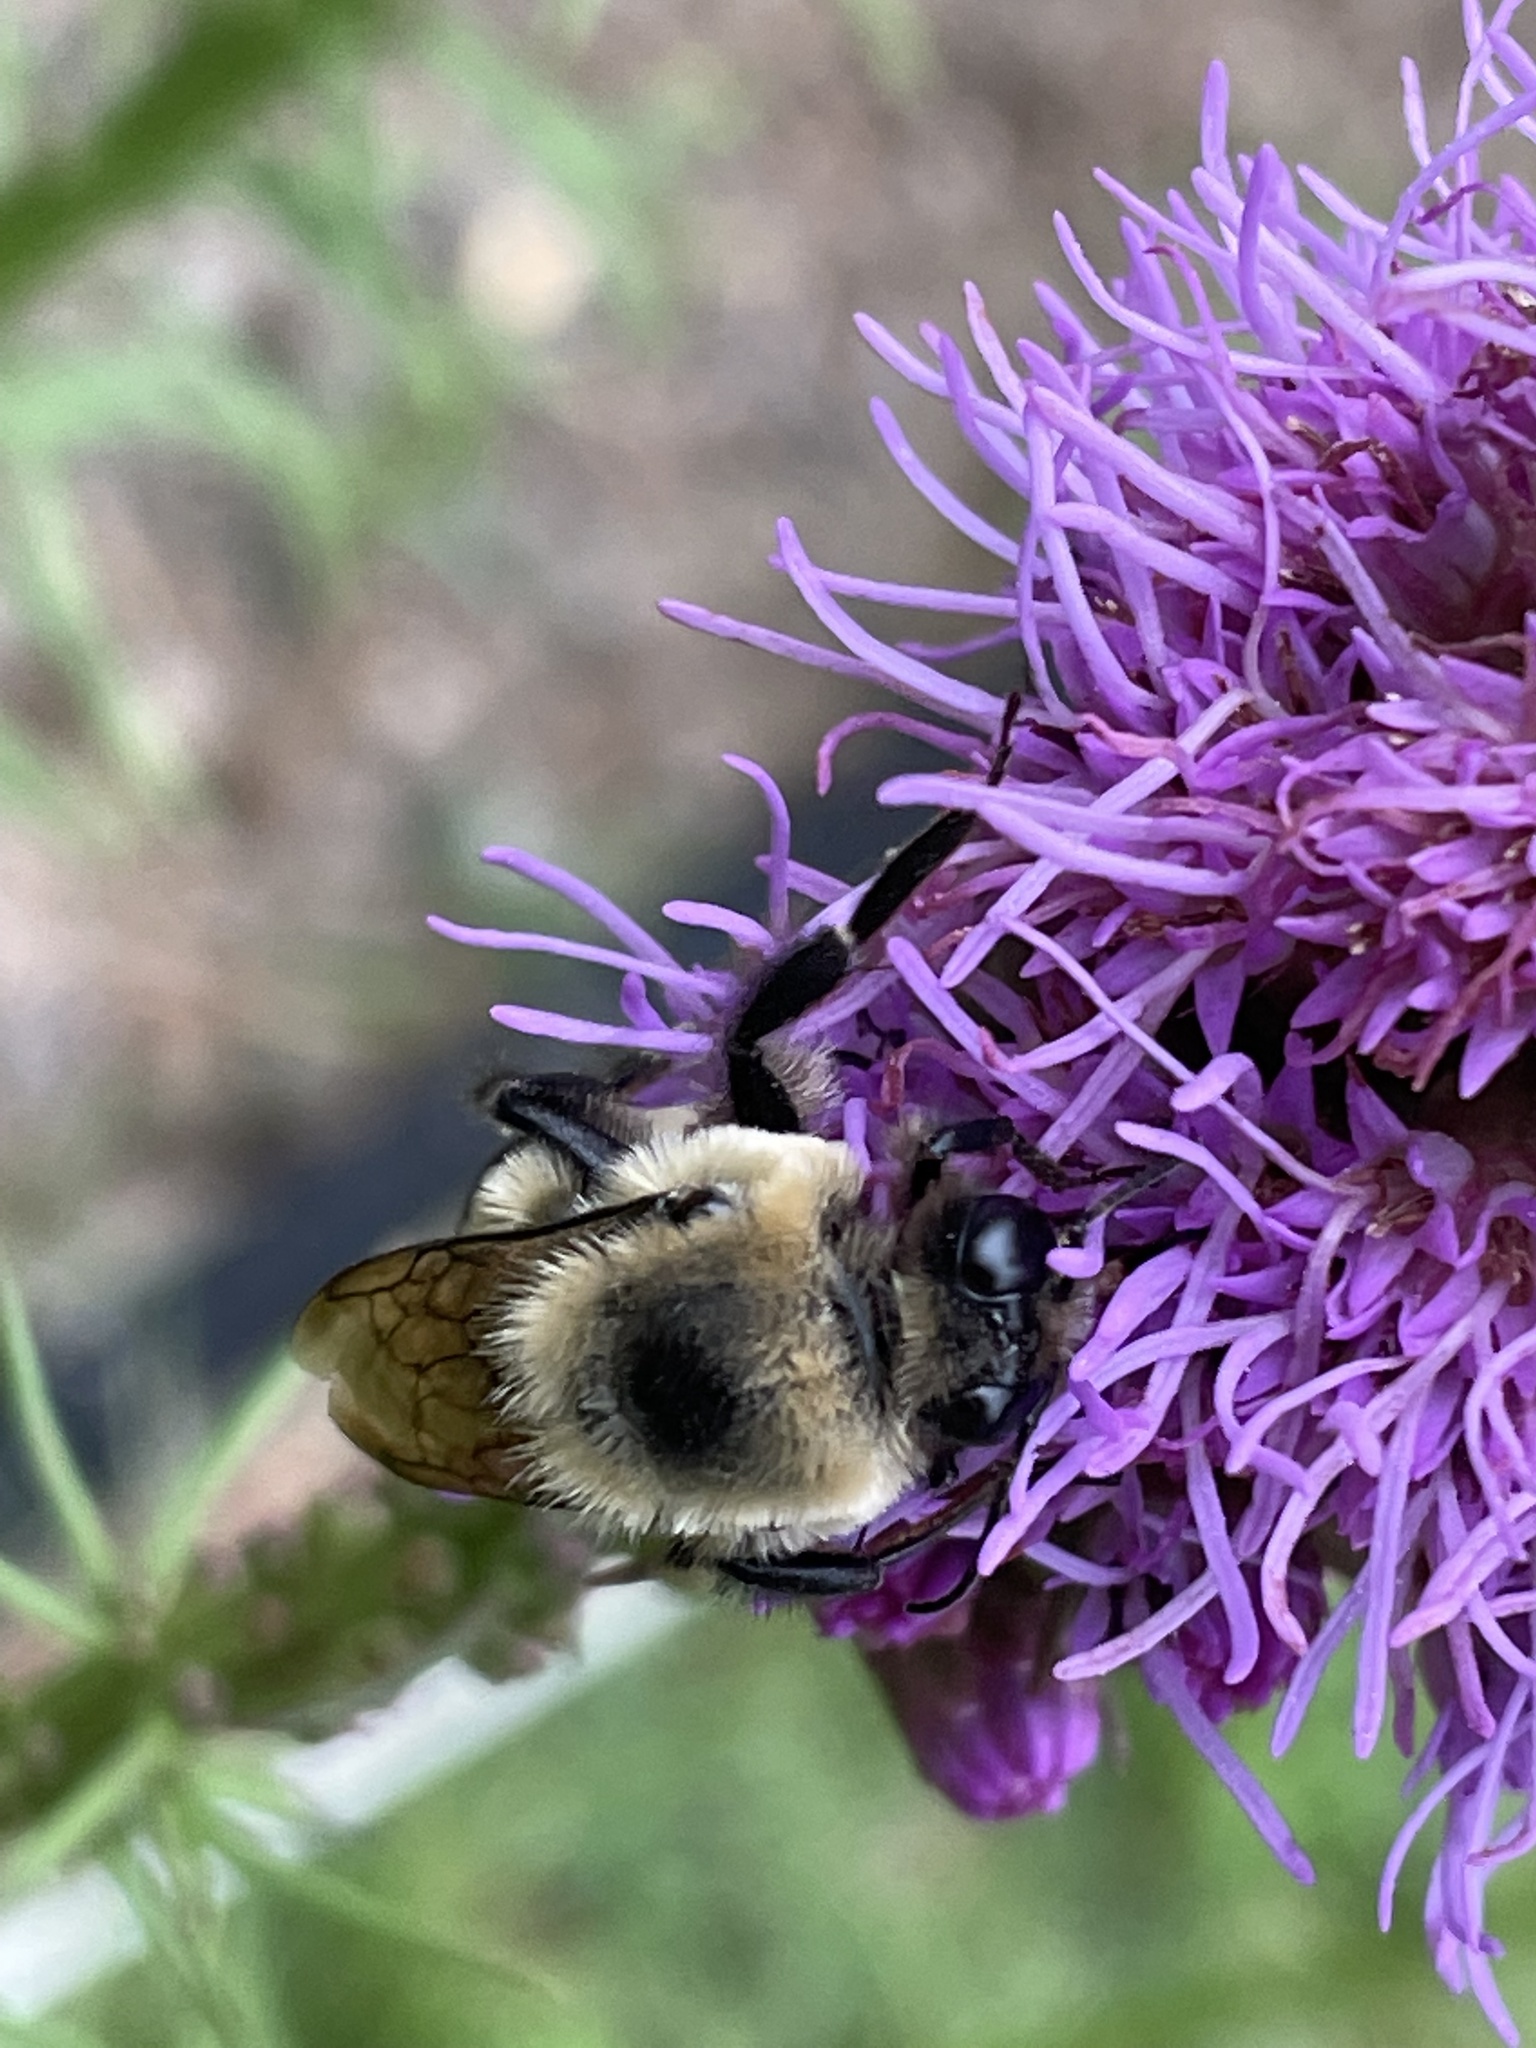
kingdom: Animalia
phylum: Arthropoda
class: Insecta
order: Hymenoptera
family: Apidae
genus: Bombus
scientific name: Bombus griseocollis
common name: Brown-belted bumble bee
